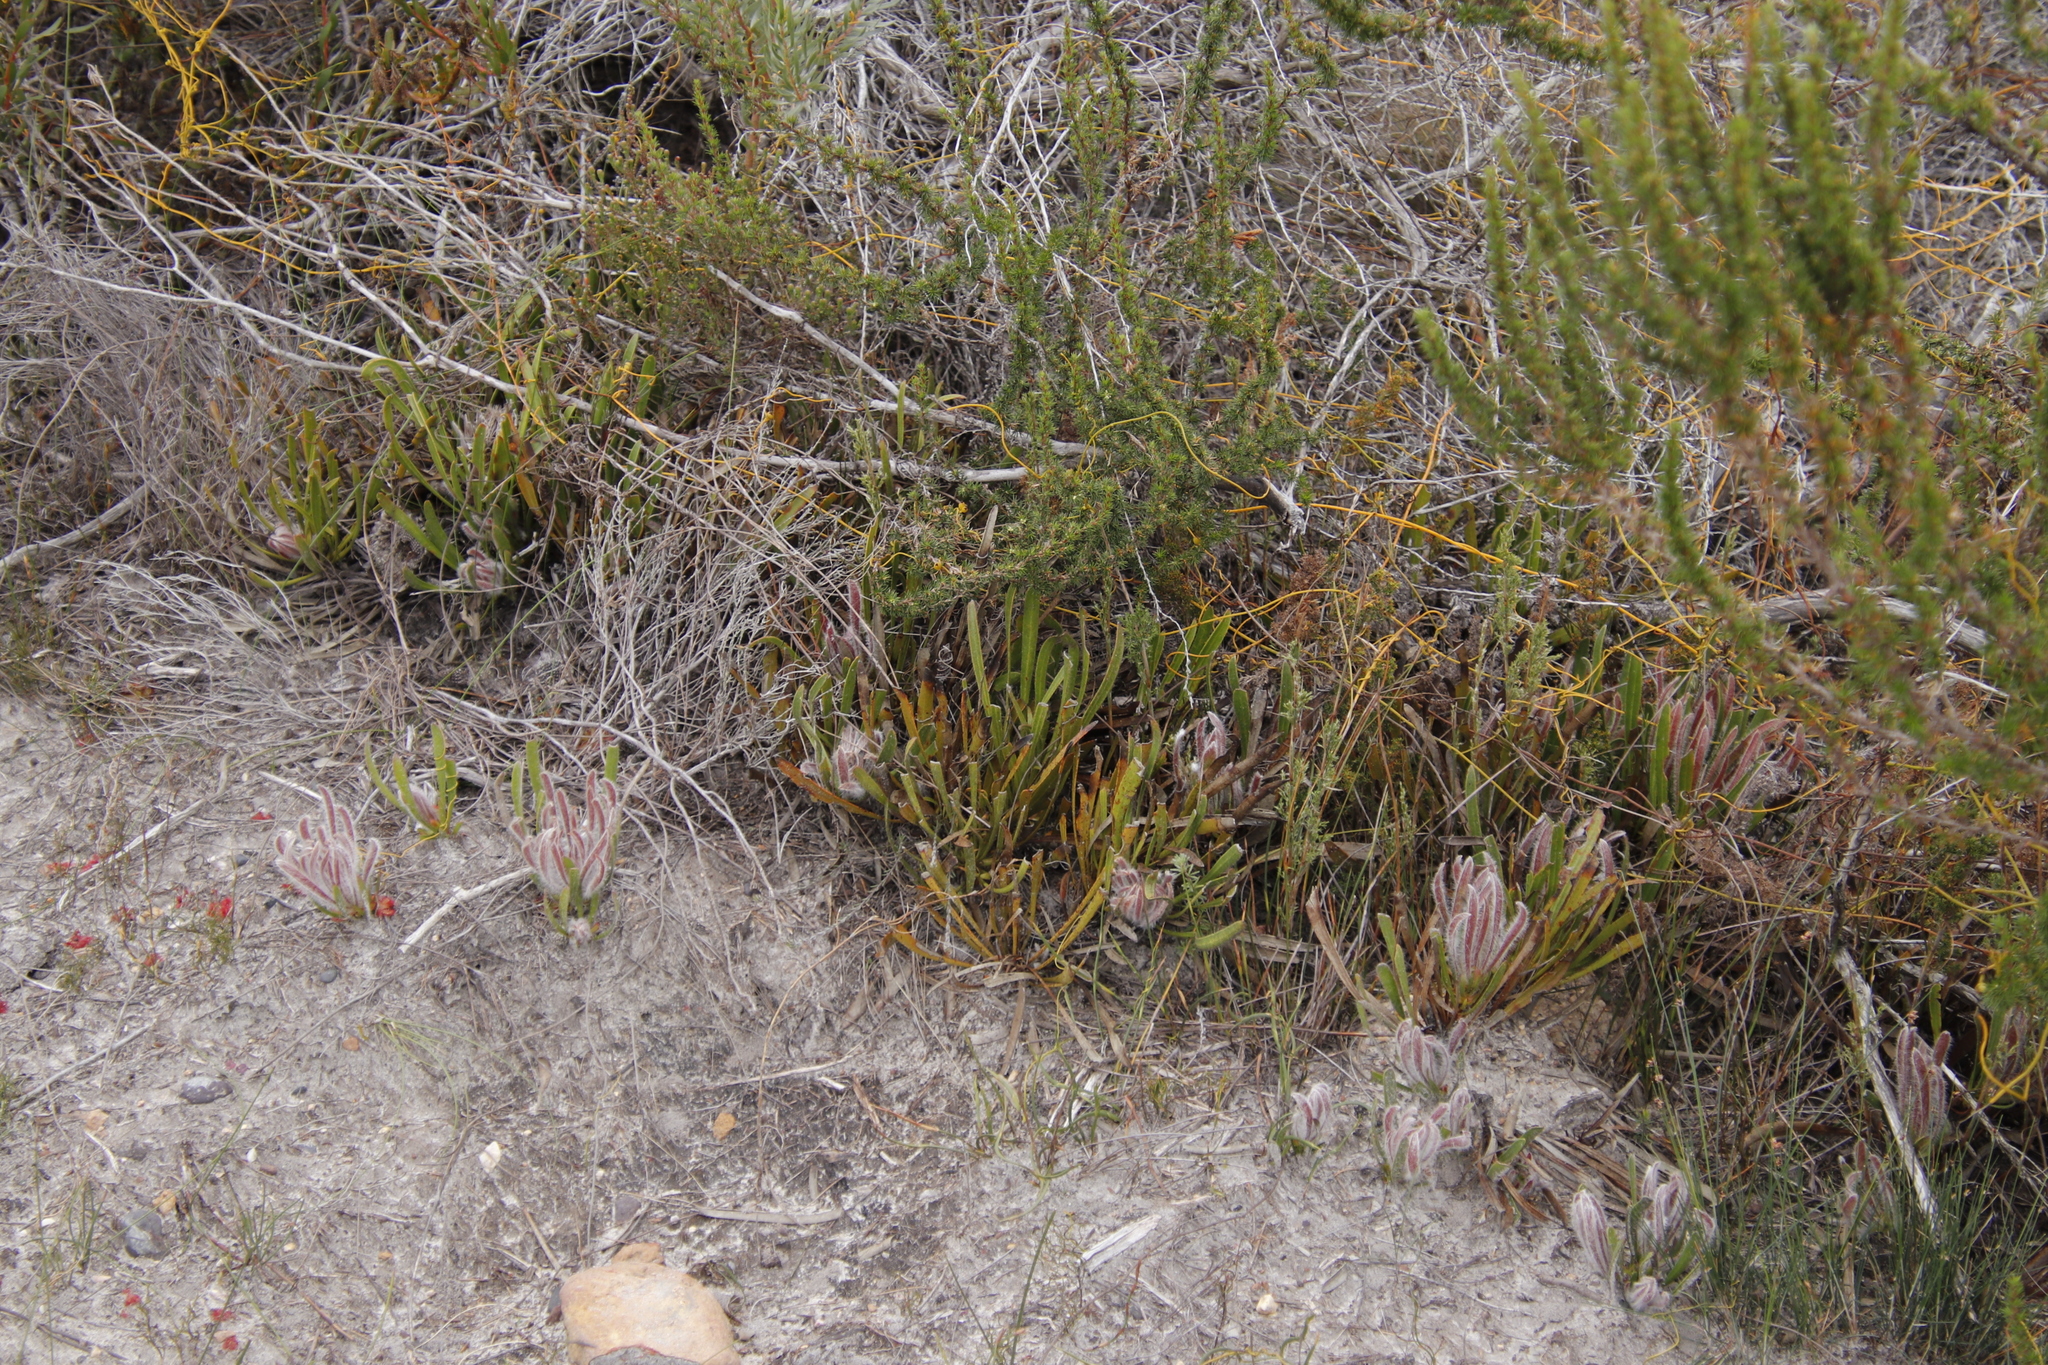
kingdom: Plantae
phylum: Tracheophyta
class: Magnoliopsida
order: Proteales
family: Proteaceae
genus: Protea
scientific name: Protea aspera
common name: Rough-leaf sugarbush
